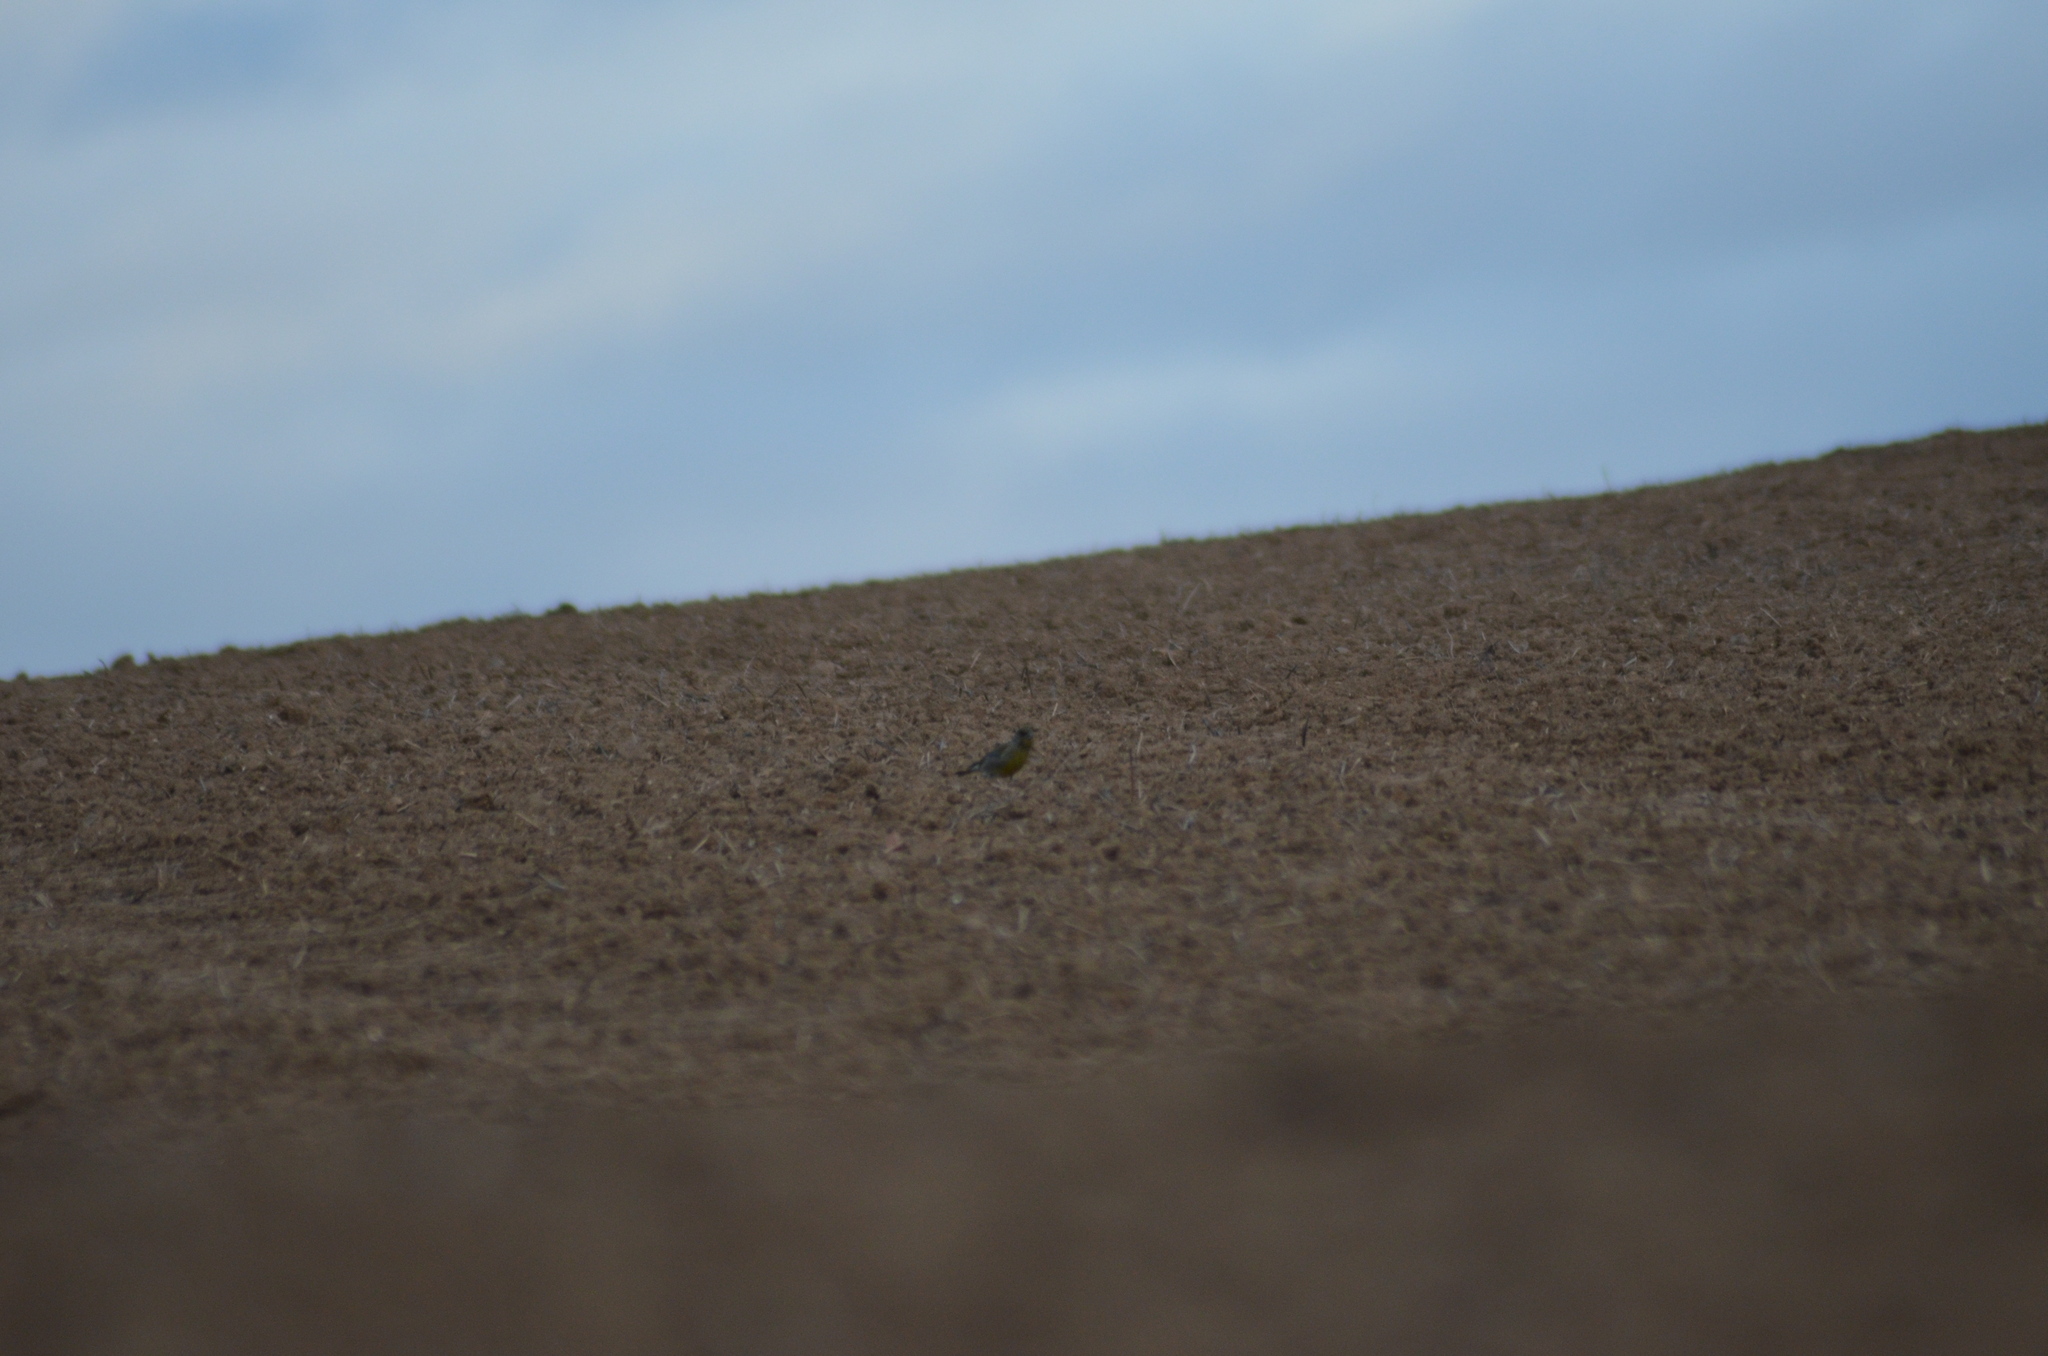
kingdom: Plantae
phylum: Tracheophyta
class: Liliopsida
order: Poales
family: Poaceae
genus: Chloris
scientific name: Chloris chloris
